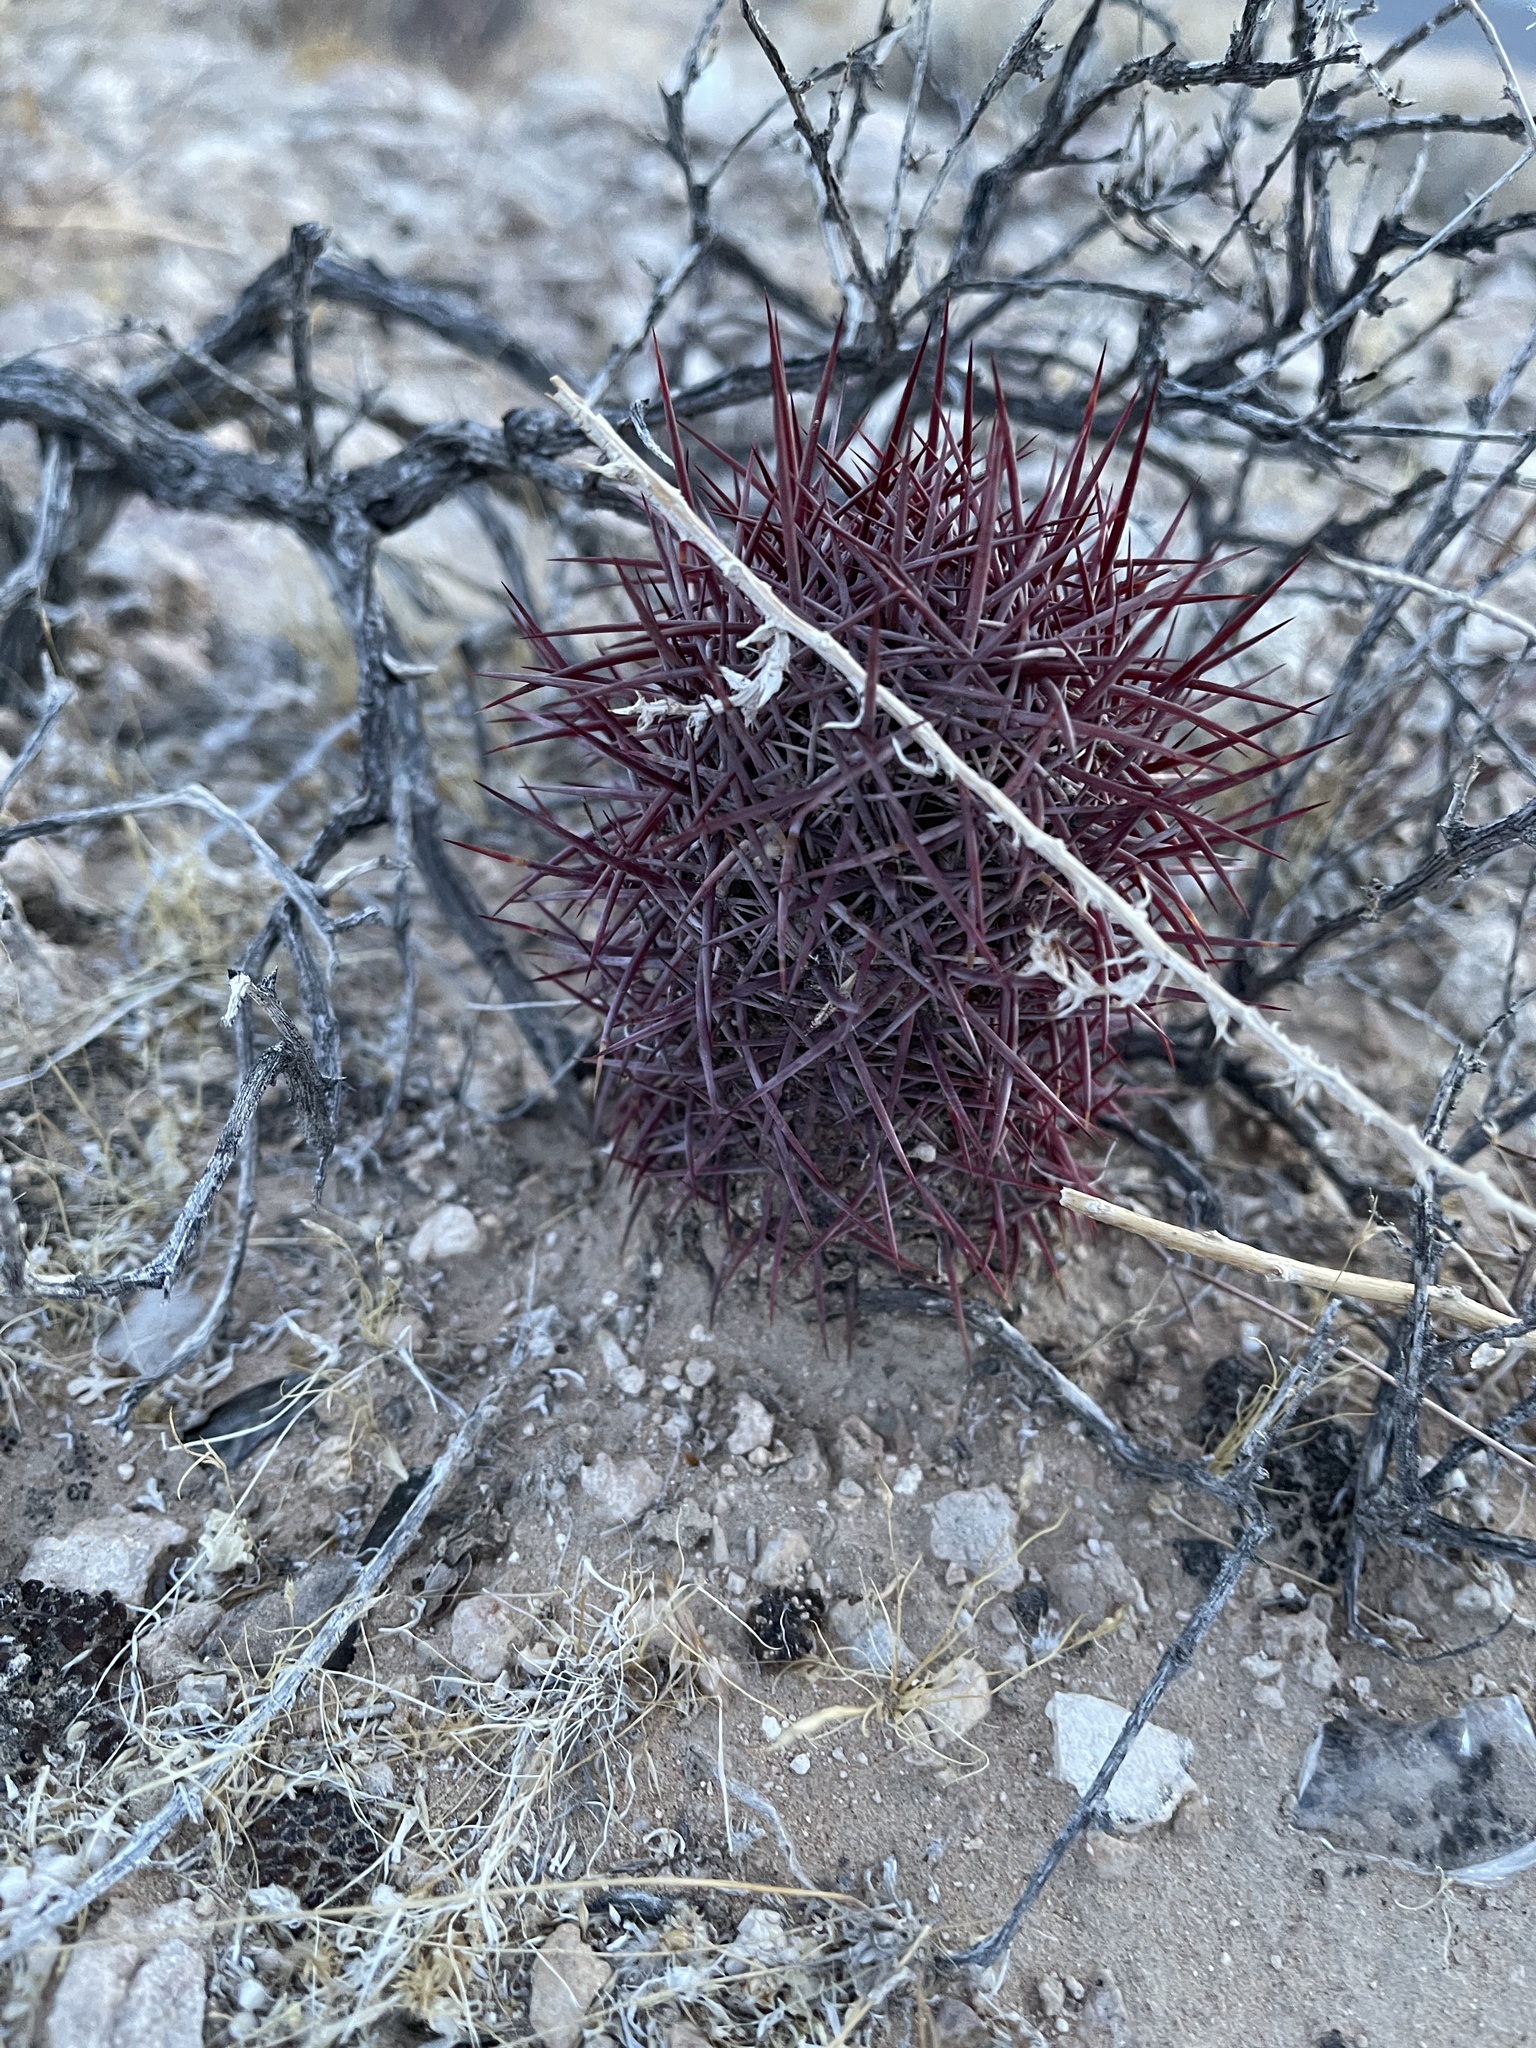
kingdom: Plantae
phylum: Tracheophyta
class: Magnoliopsida
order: Caryophyllales
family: Cactaceae
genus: Sclerocactus
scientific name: Sclerocactus johnsonii
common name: Eight-spine fishhook cactus
